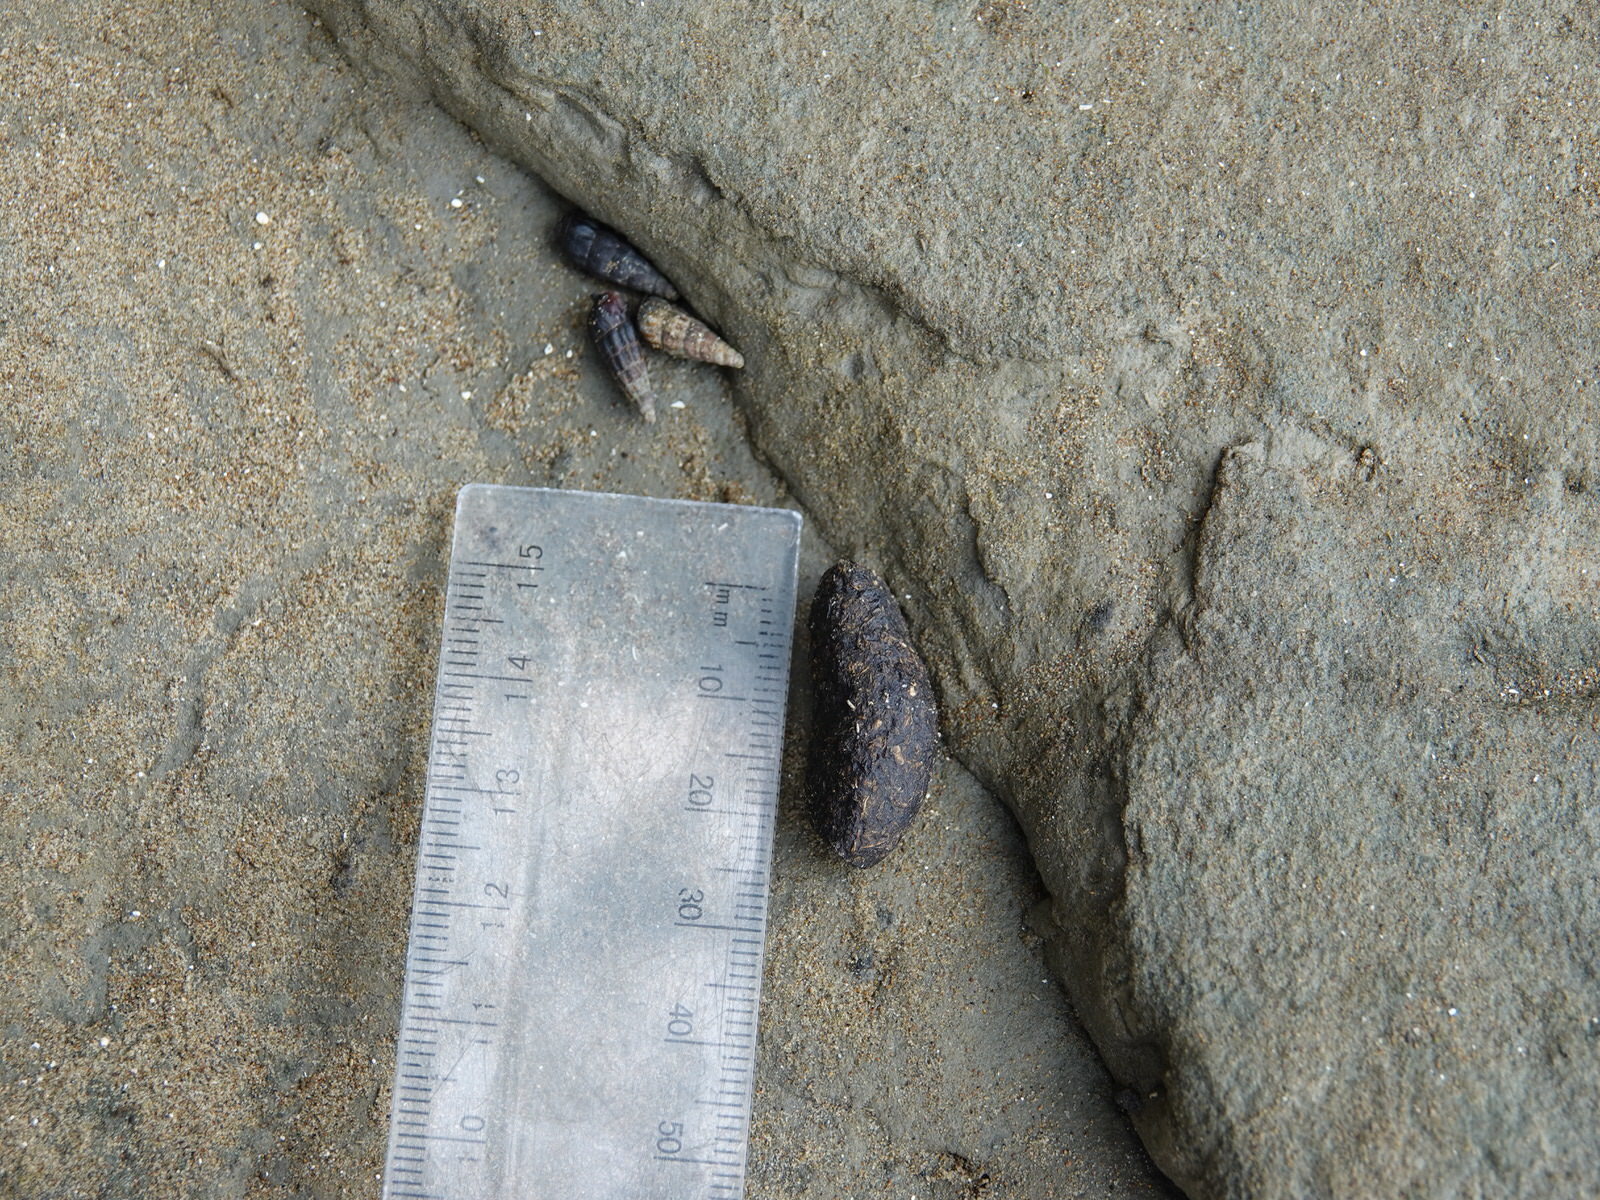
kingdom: Animalia
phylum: Chordata
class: Mammalia
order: Diprotodontia
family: Phalangeridae
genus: Trichosurus
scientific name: Trichosurus vulpecula
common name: Common brushtail
